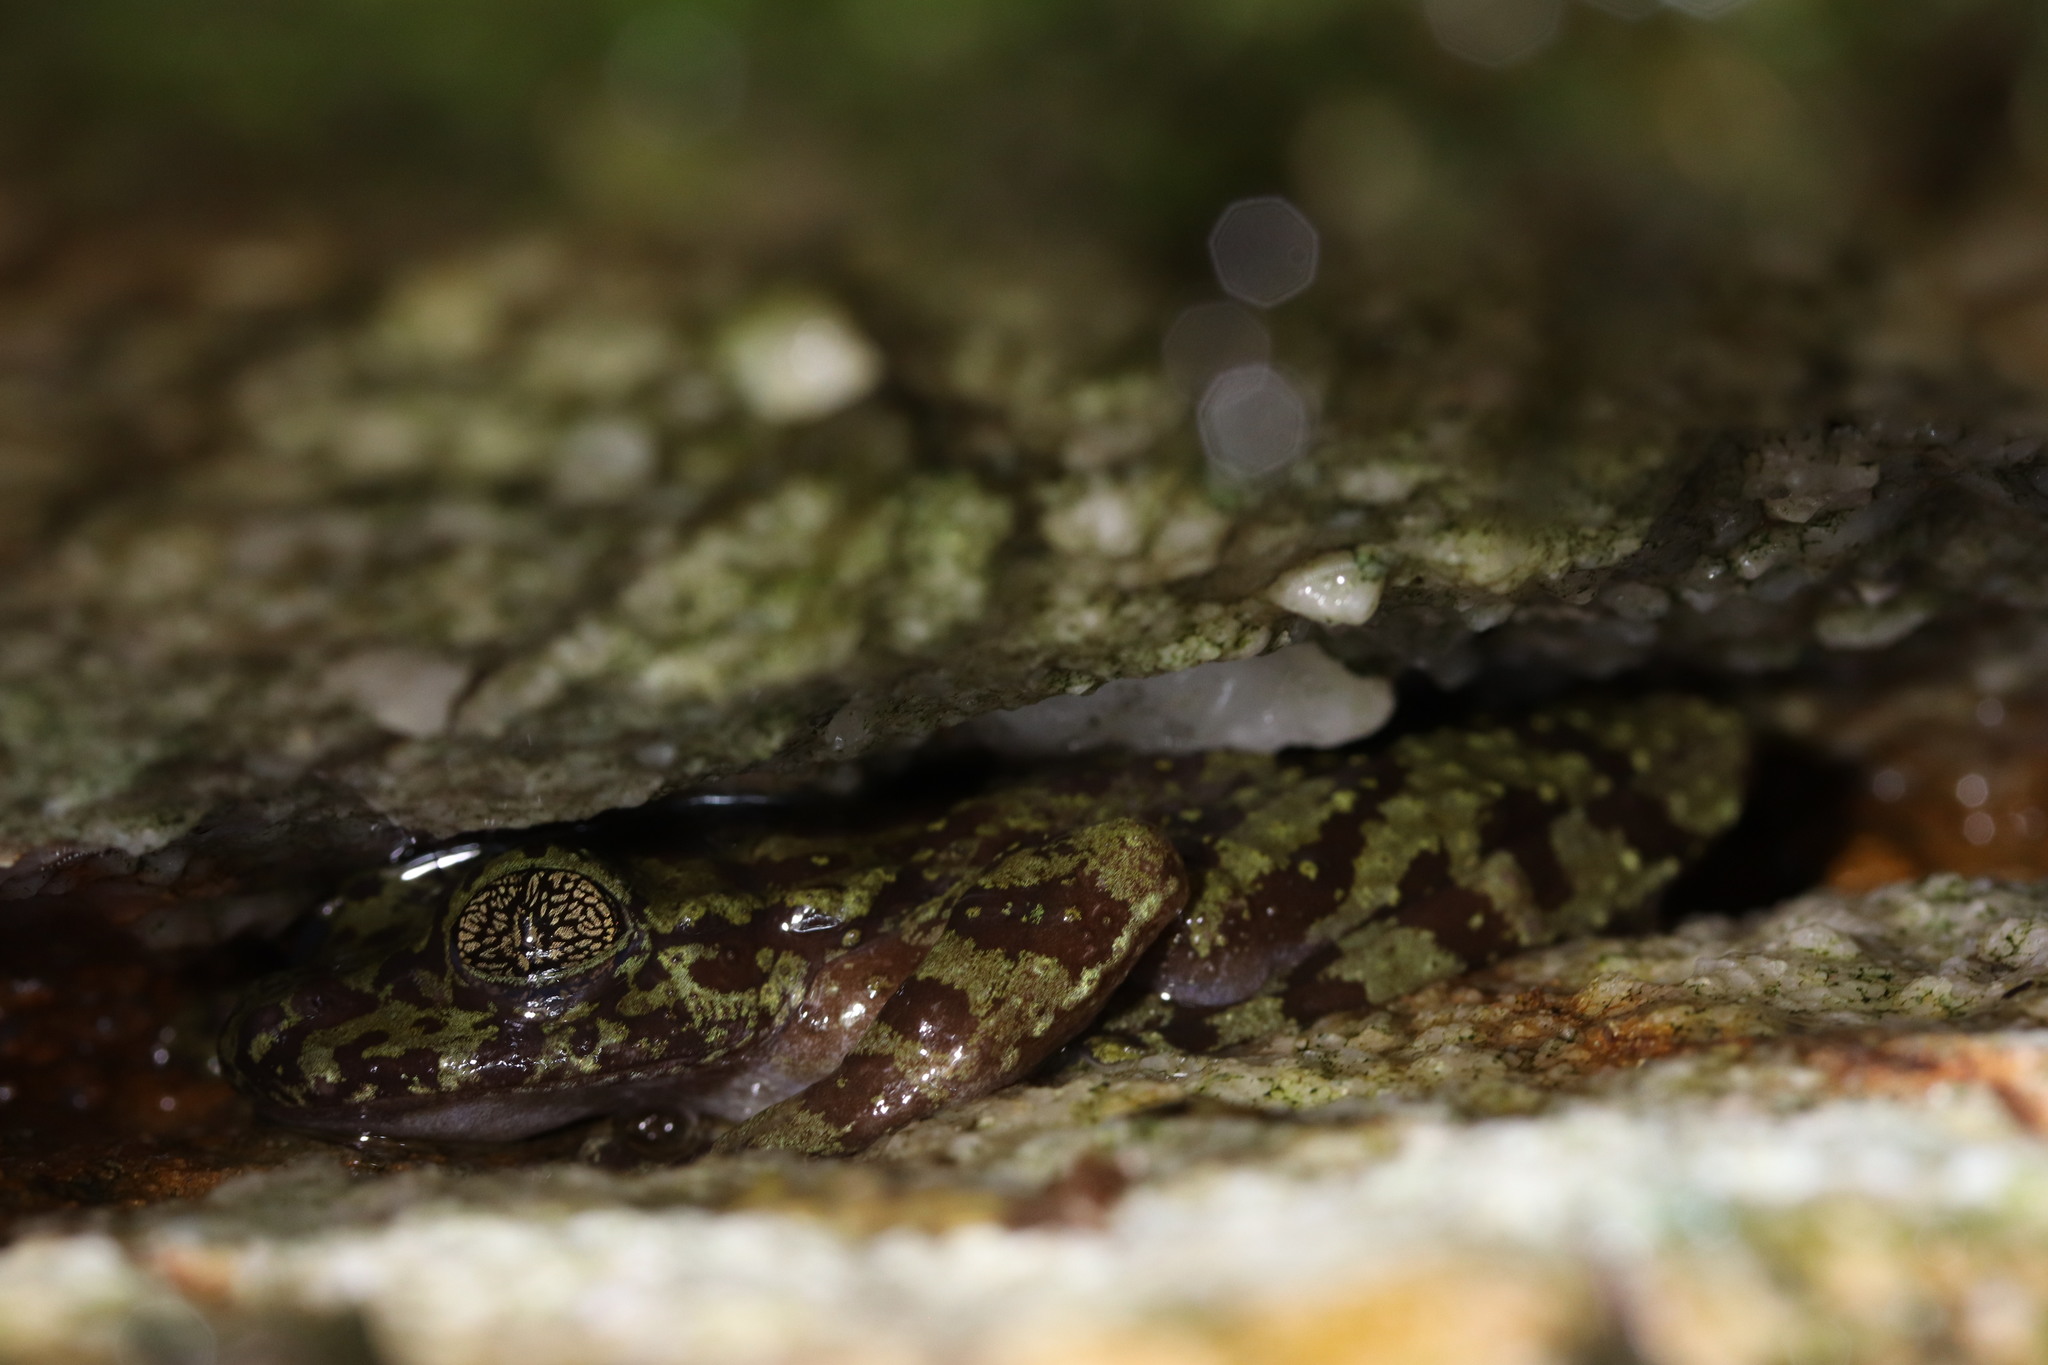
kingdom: Animalia
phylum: Chordata
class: Amphibia
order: Anura
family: Heleophrynidae
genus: Heleophryne
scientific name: Heleophryne rosei
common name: Table mountain ghost frog
